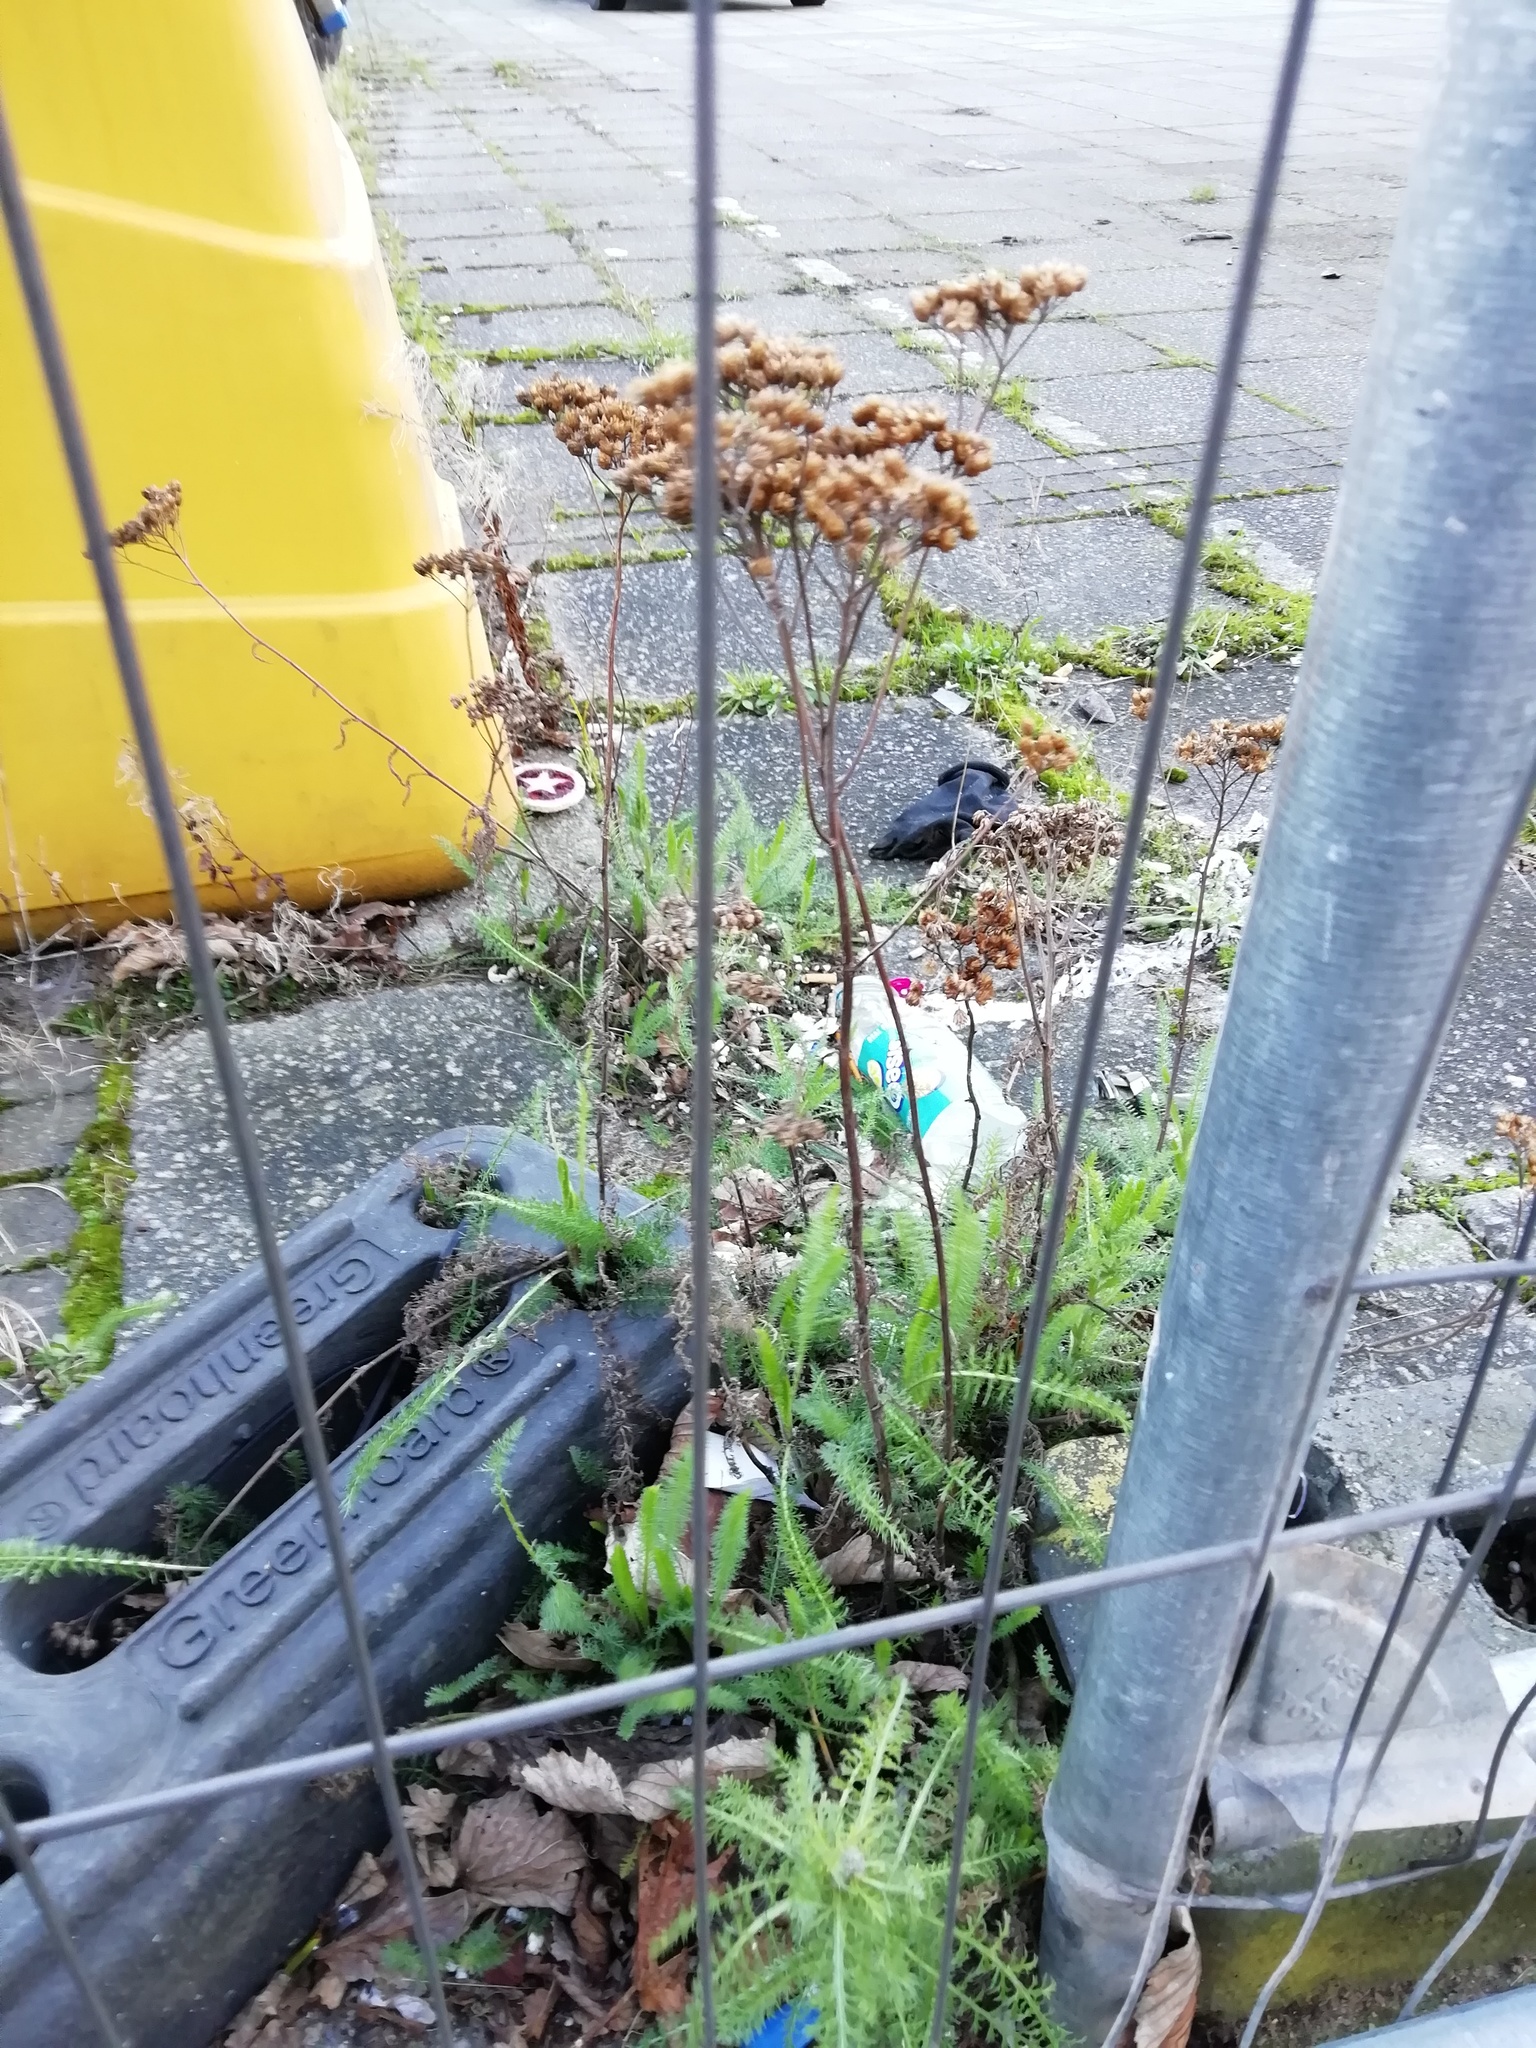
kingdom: Plantae
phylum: Tracheophyta
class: Magnoliopsida
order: Asterales
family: Asteraceae
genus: Achillea
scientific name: Achillea millefolium
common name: Yarrow
